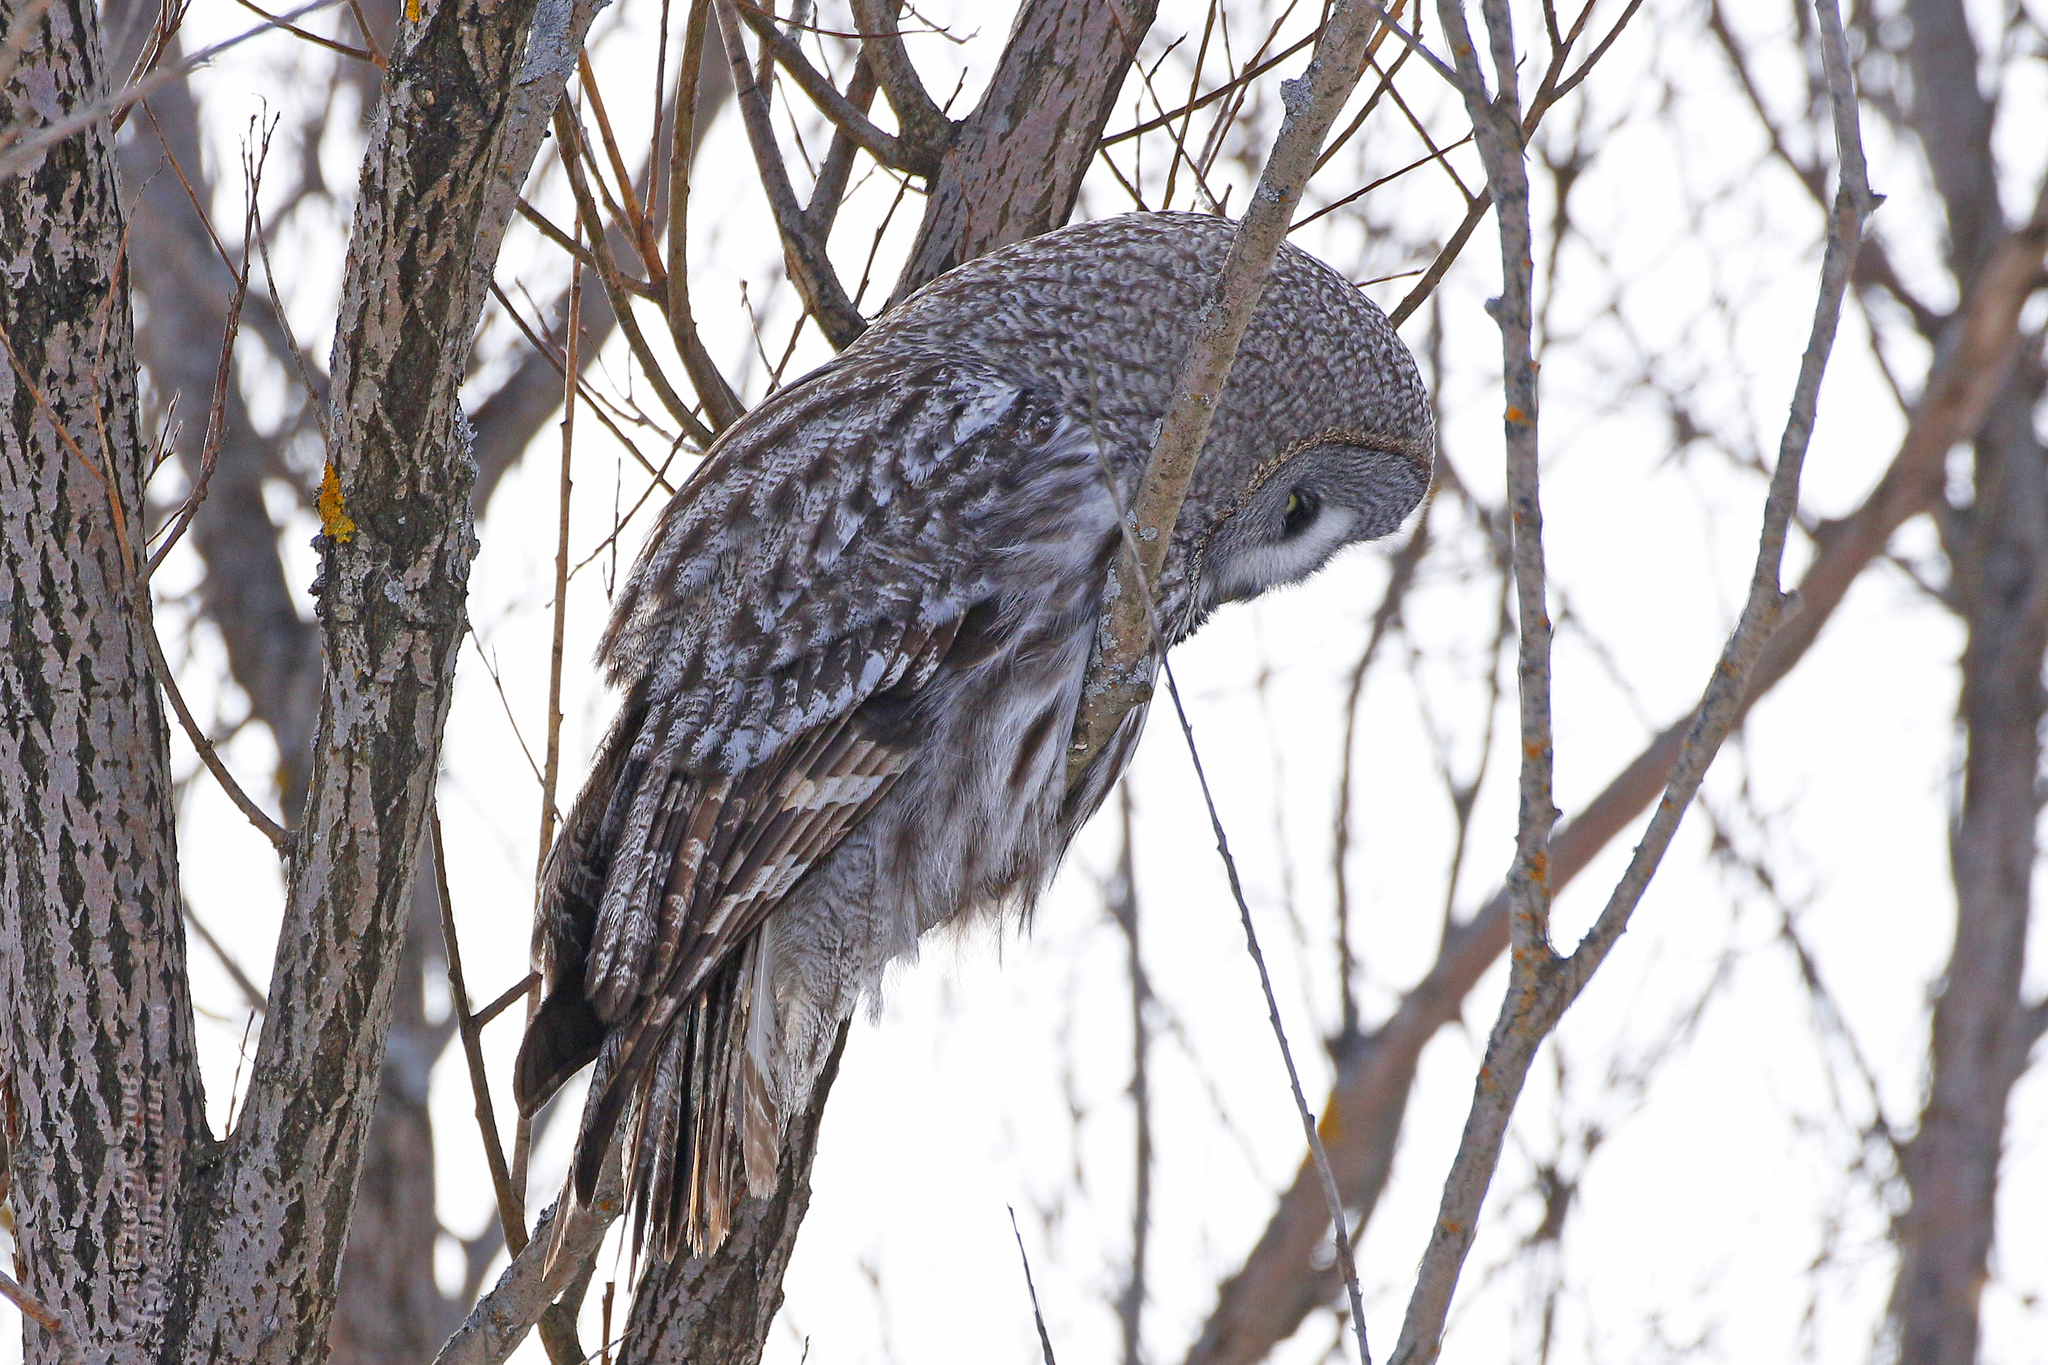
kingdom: Animalia
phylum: Chordata
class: Aves
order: Strigiformes
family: Strigidae
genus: Strix
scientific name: Strix nebulosa
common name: Great grey owl
